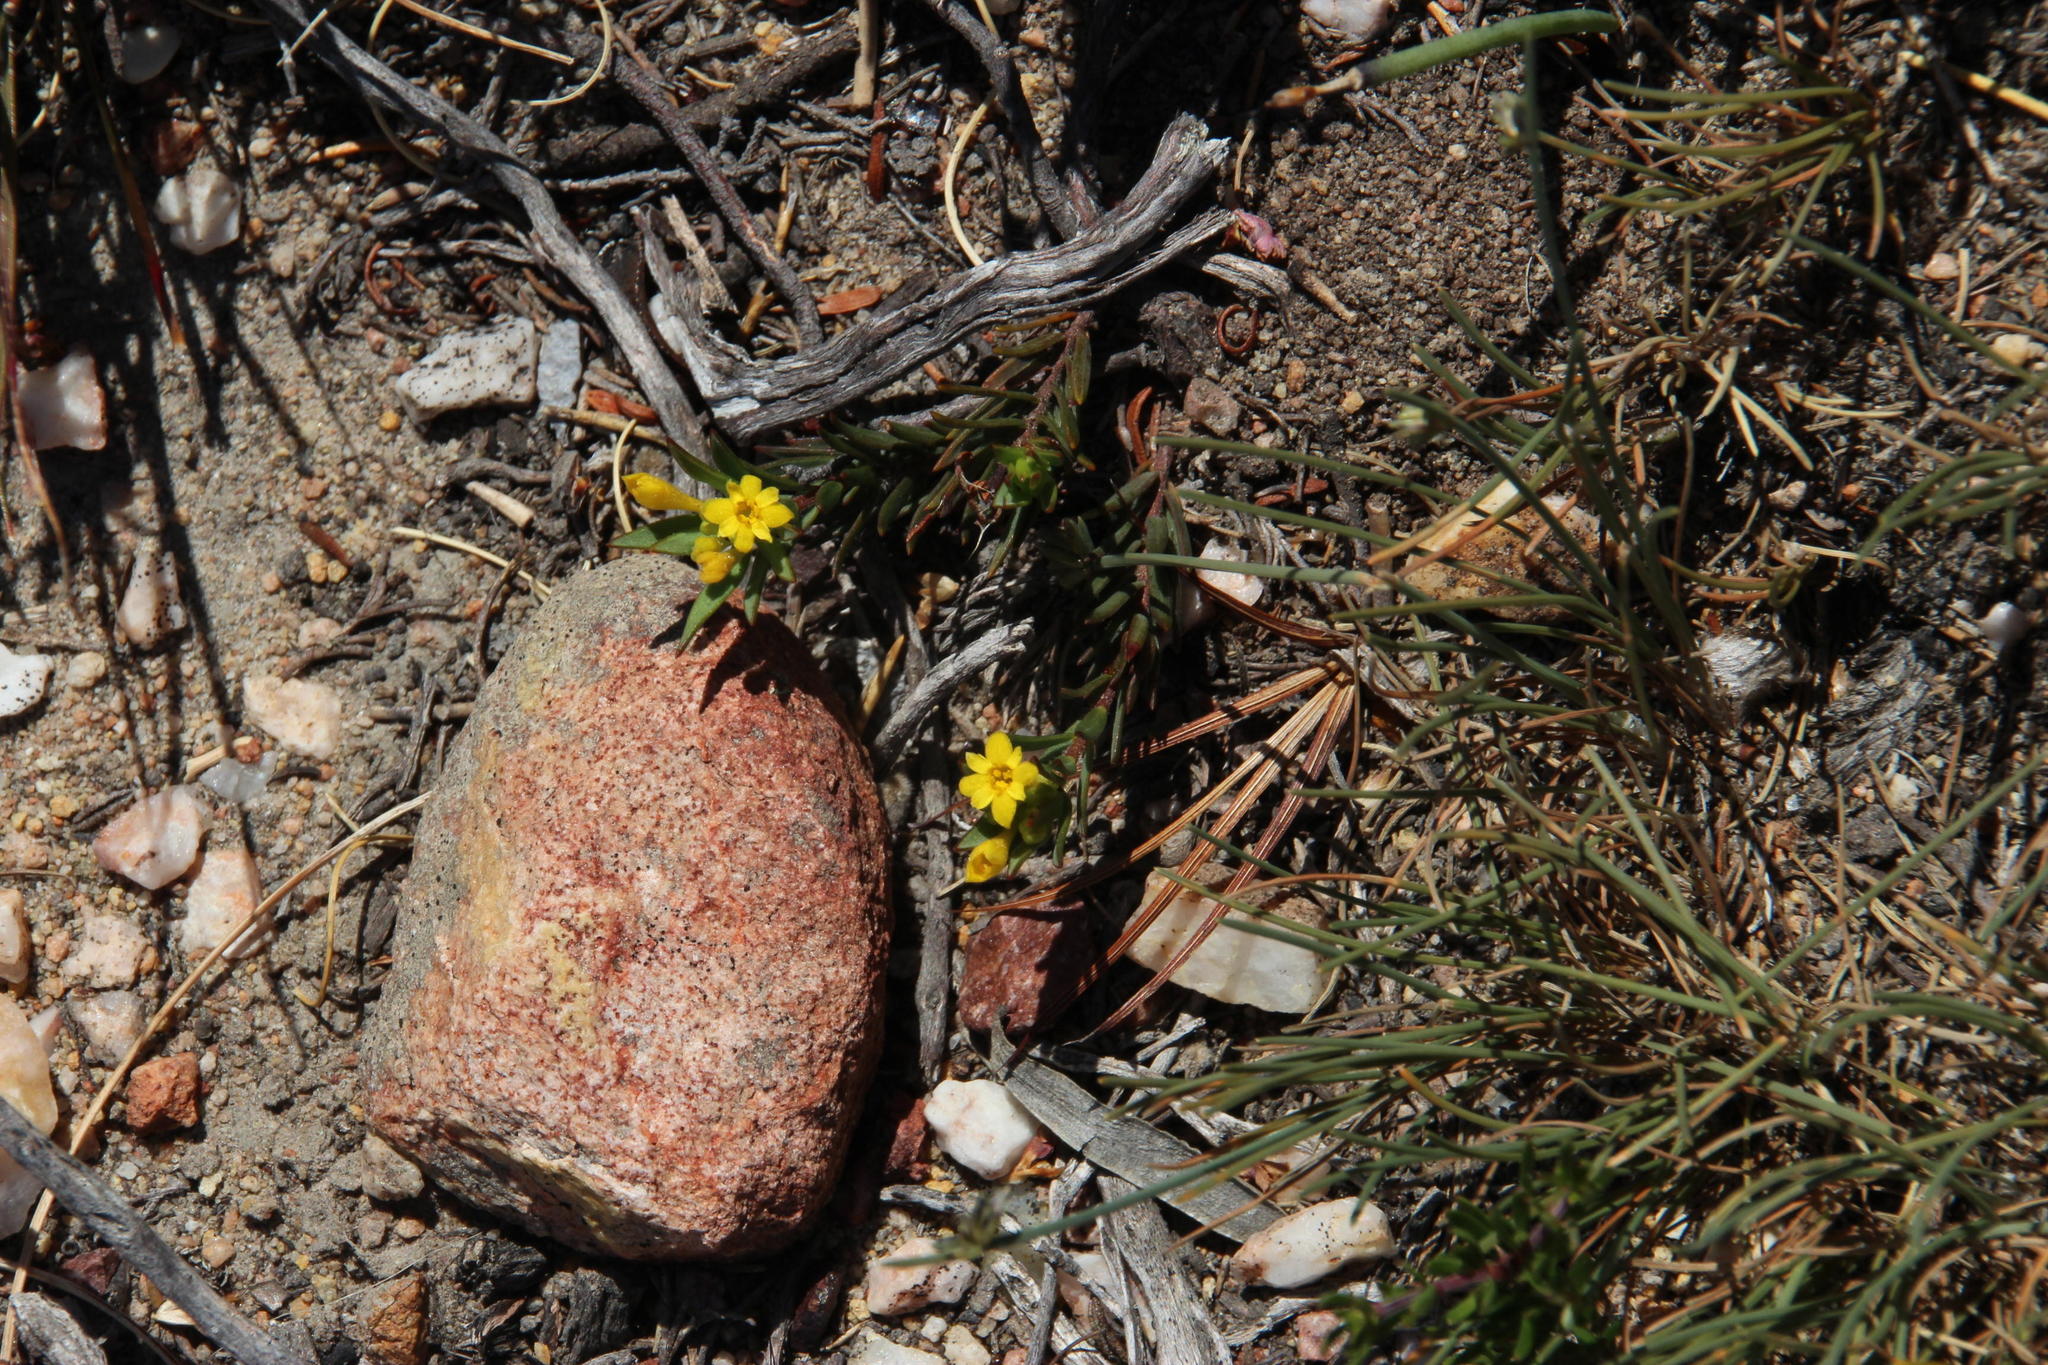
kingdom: Plantae
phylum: Tracheophyta
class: Magnoliopsida
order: Malvales
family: Thymelaeaceae
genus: Gnidia
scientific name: Gnidia juniperifolia
